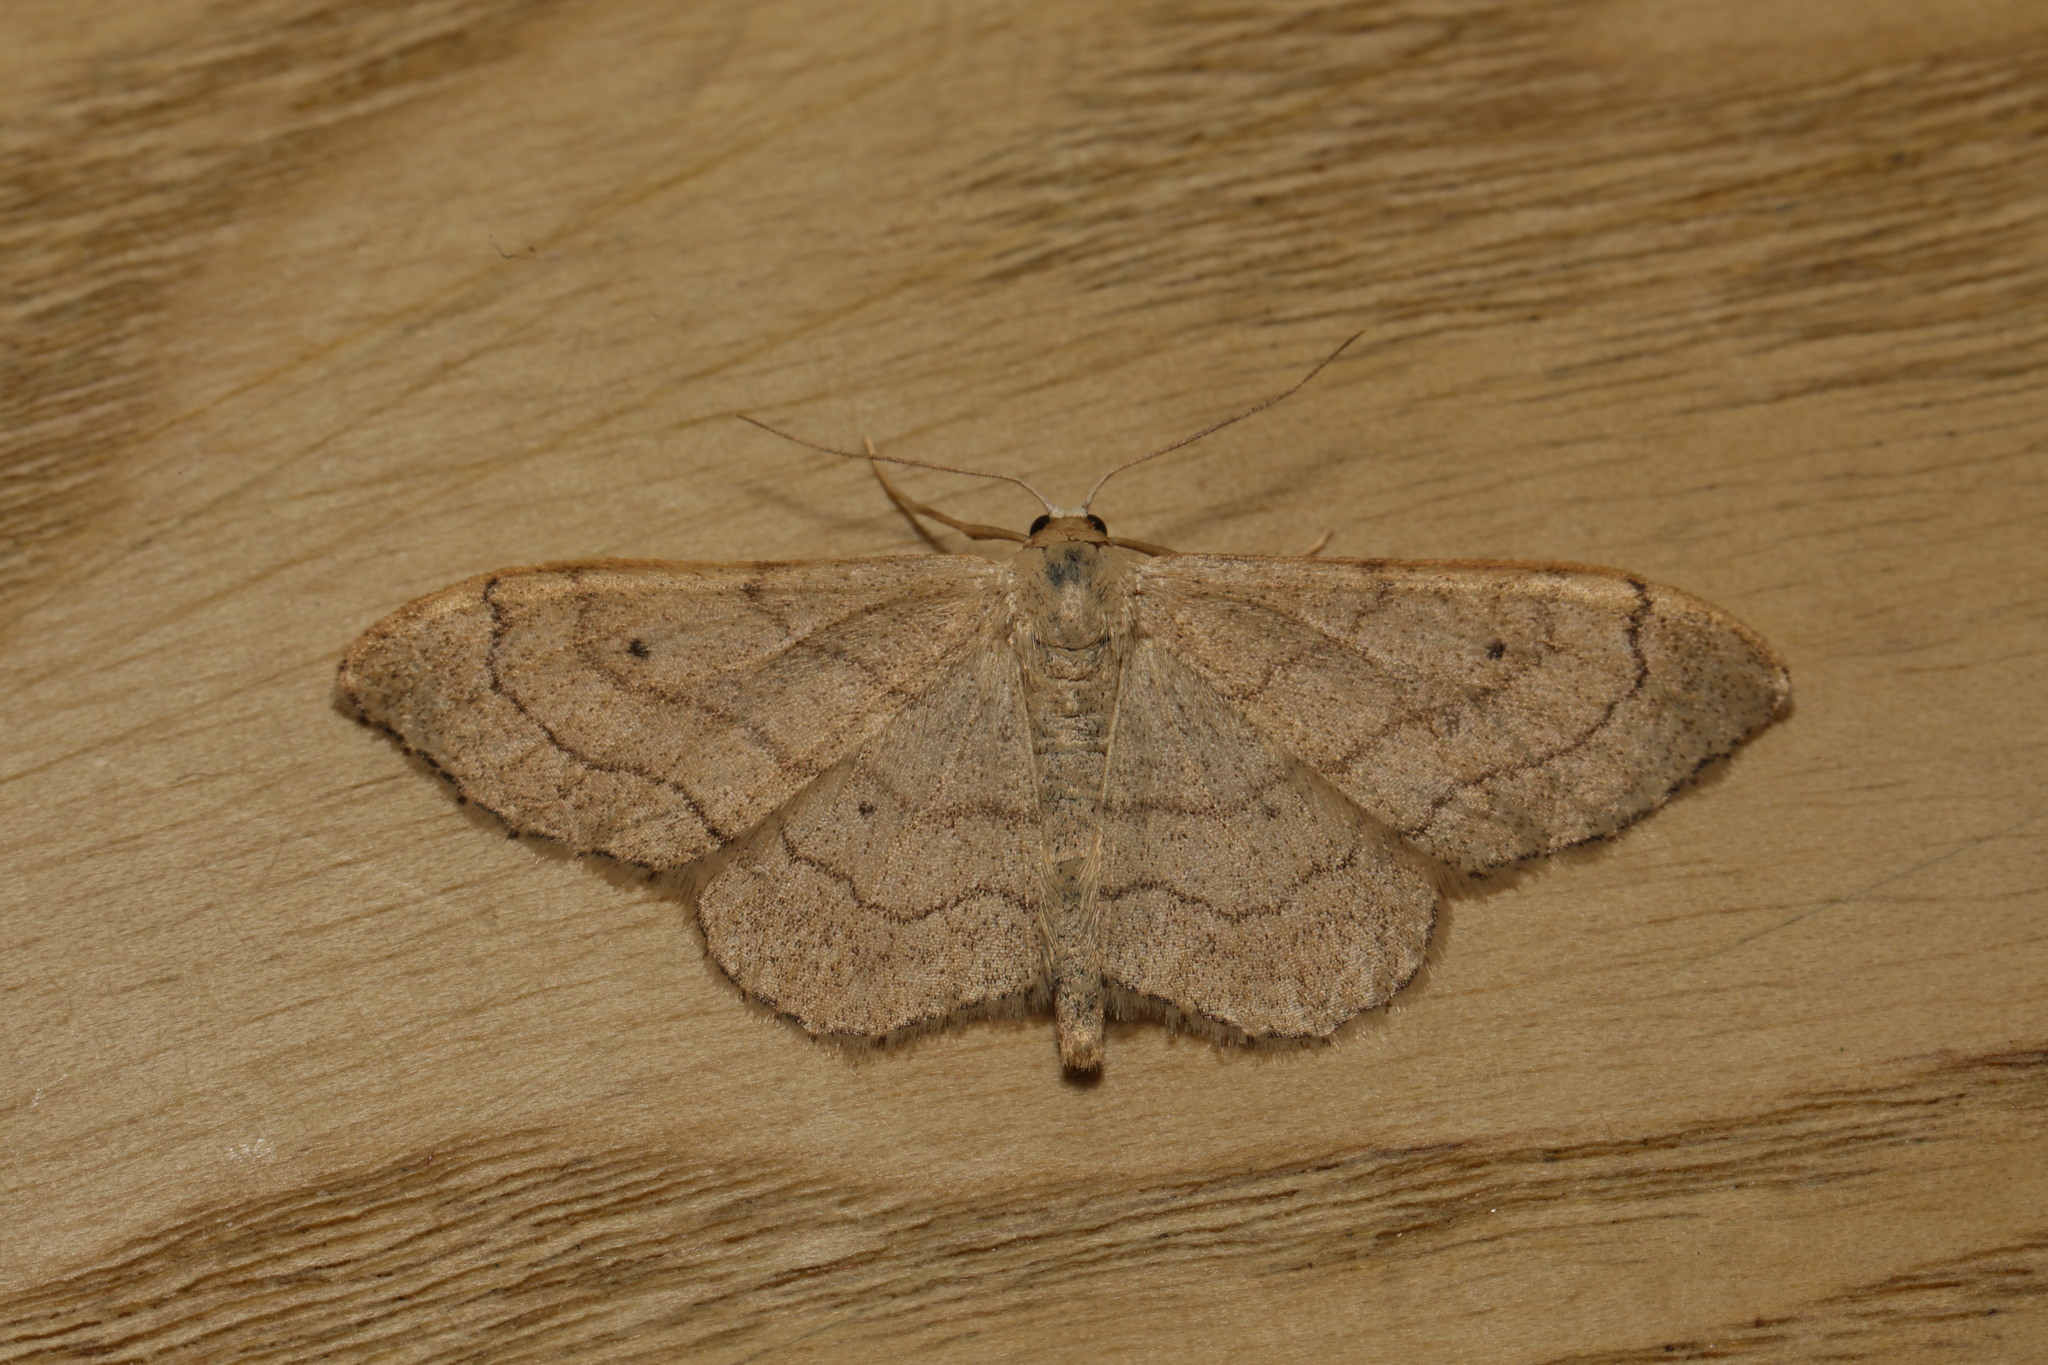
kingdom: Animalia
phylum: Arthropoda
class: Insecta
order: Lepidoptera
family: Geometridae
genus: Idaea
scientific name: Idaea aversata
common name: Riband wave
